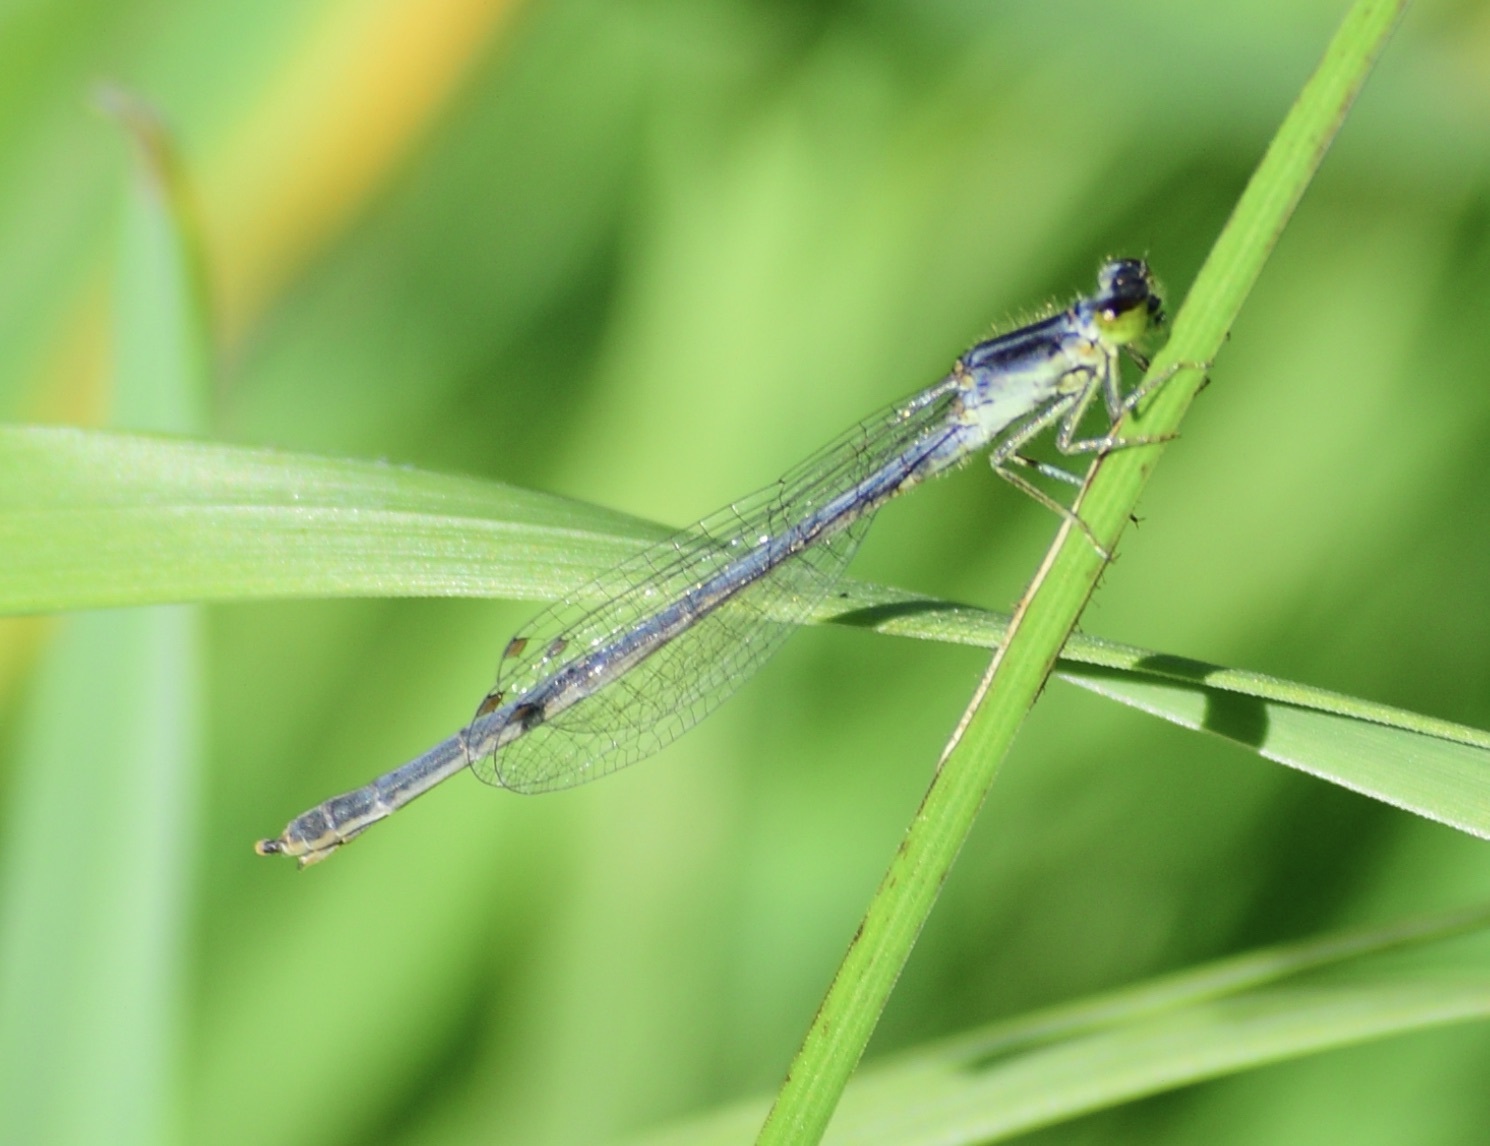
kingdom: Animalia
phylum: Arthropoda
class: Insecta
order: Odonata
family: Coenagrionidae
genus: Ischnura
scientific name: Ischnura verticalis
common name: Eastern forktail
